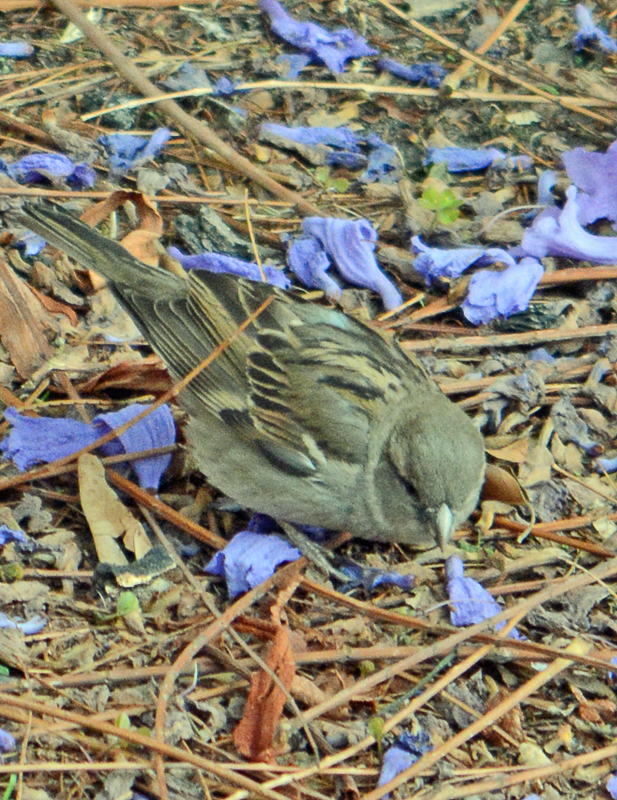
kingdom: Animalia
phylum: Chordata
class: Aves
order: Passeriformes
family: Passeridae
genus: Passer
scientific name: Passer domesticus
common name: House sparrow
